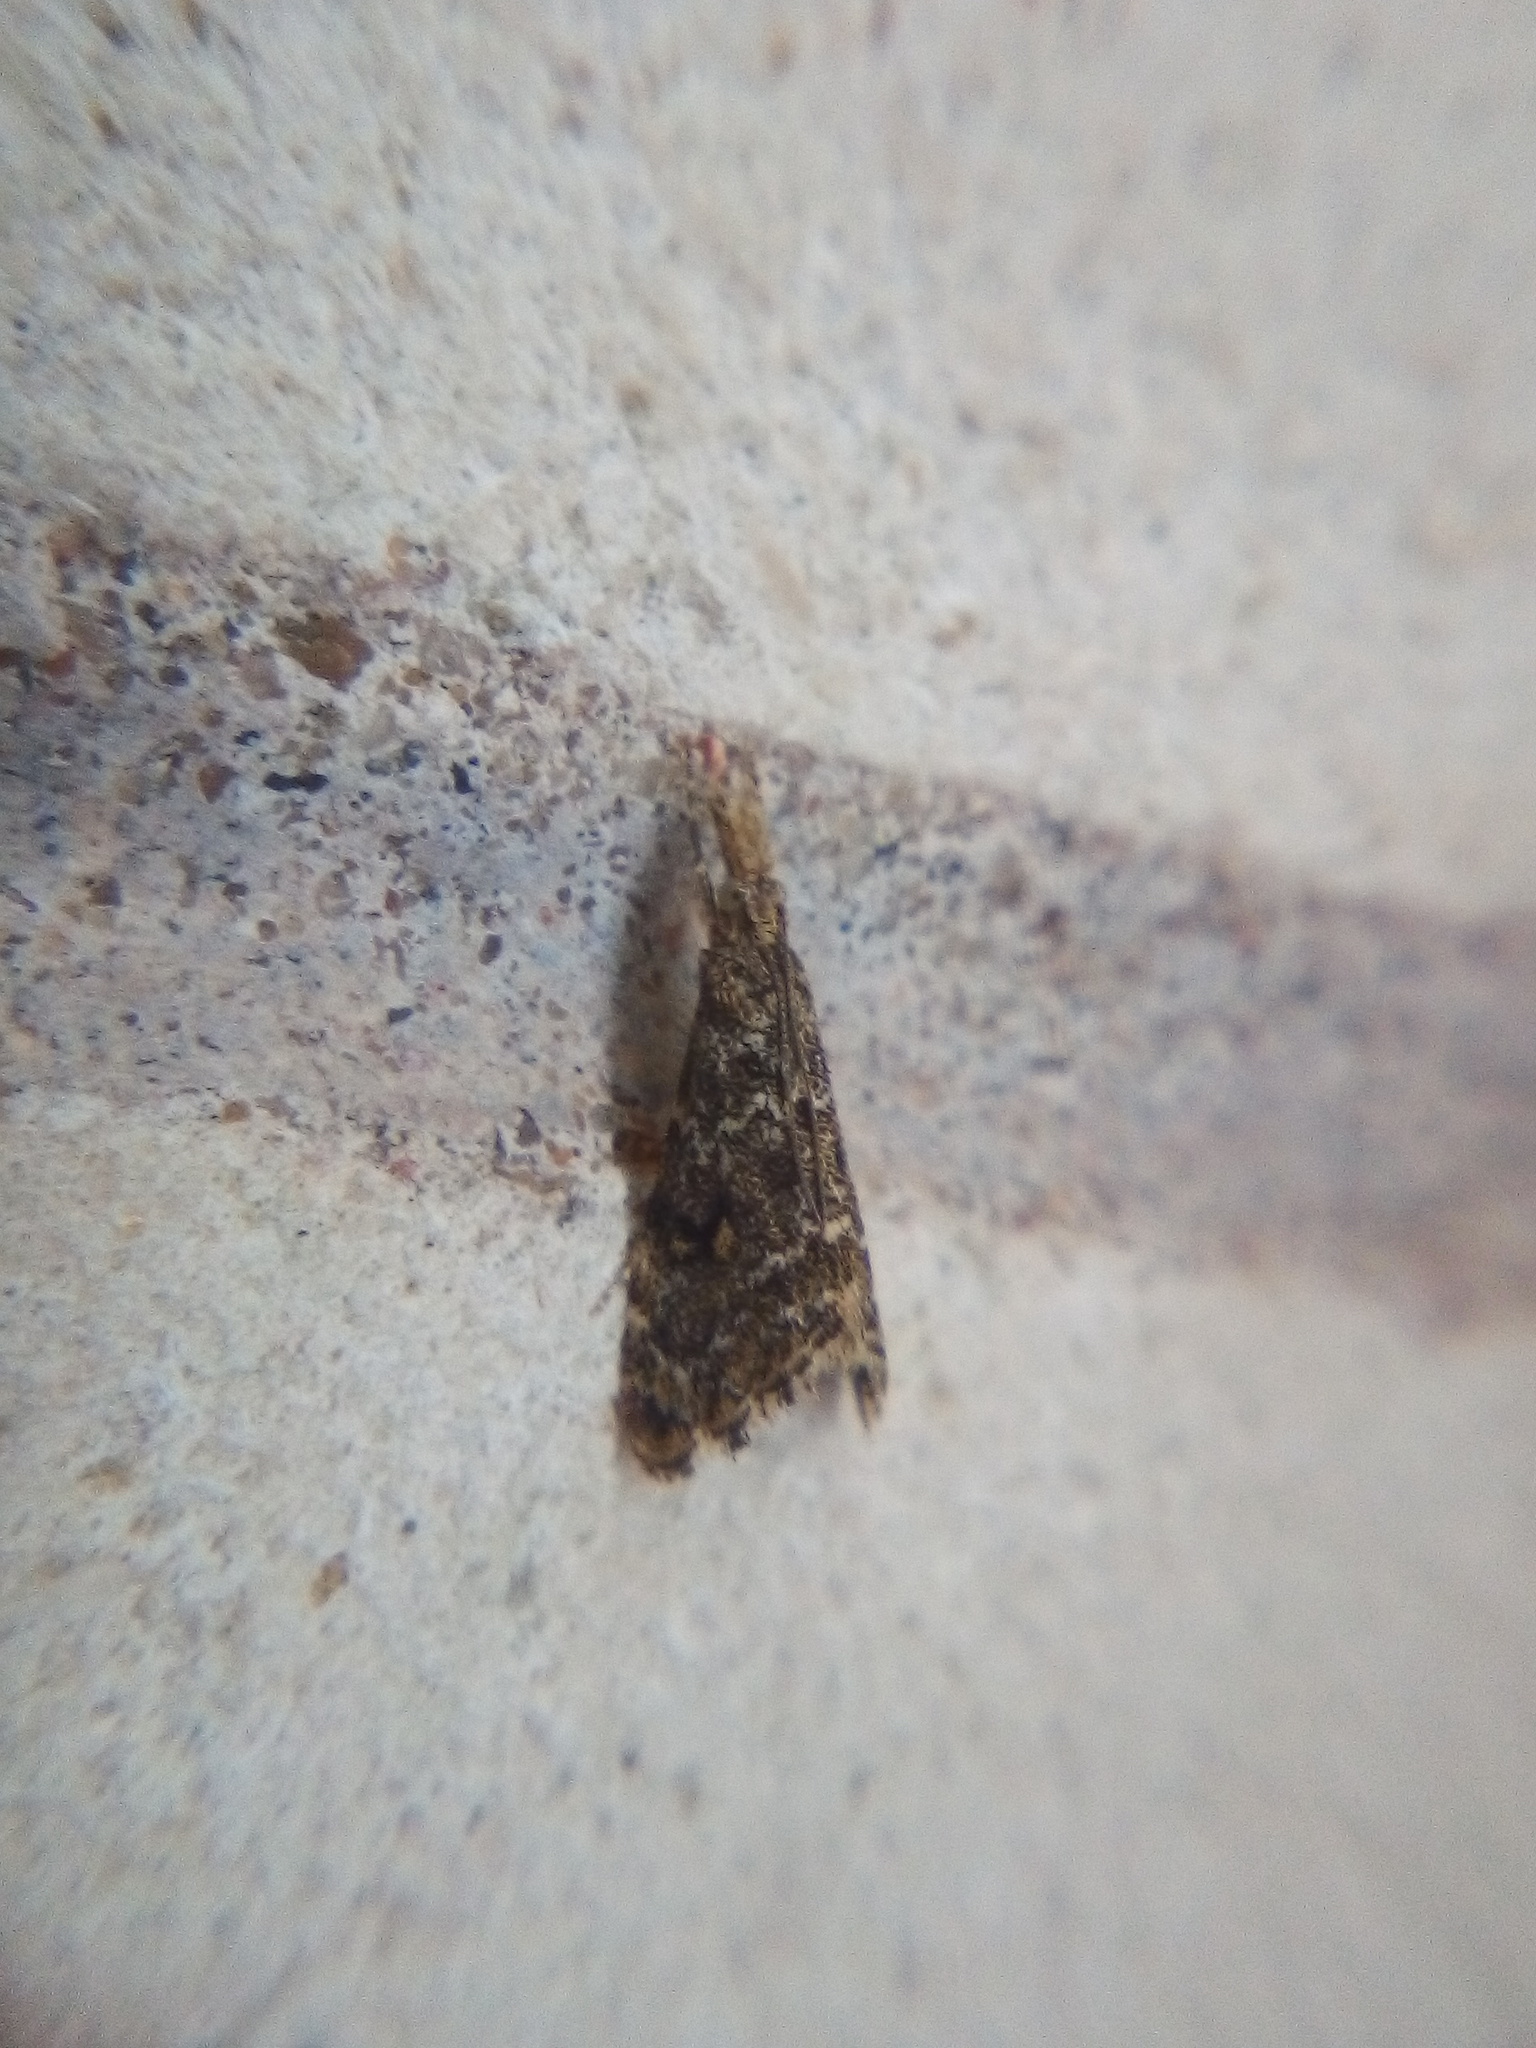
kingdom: Animalia
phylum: Arthropoda
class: Insecta
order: Lepidoptera
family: Crambidae
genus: Glaucocharis
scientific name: Glaucocharis elaina
